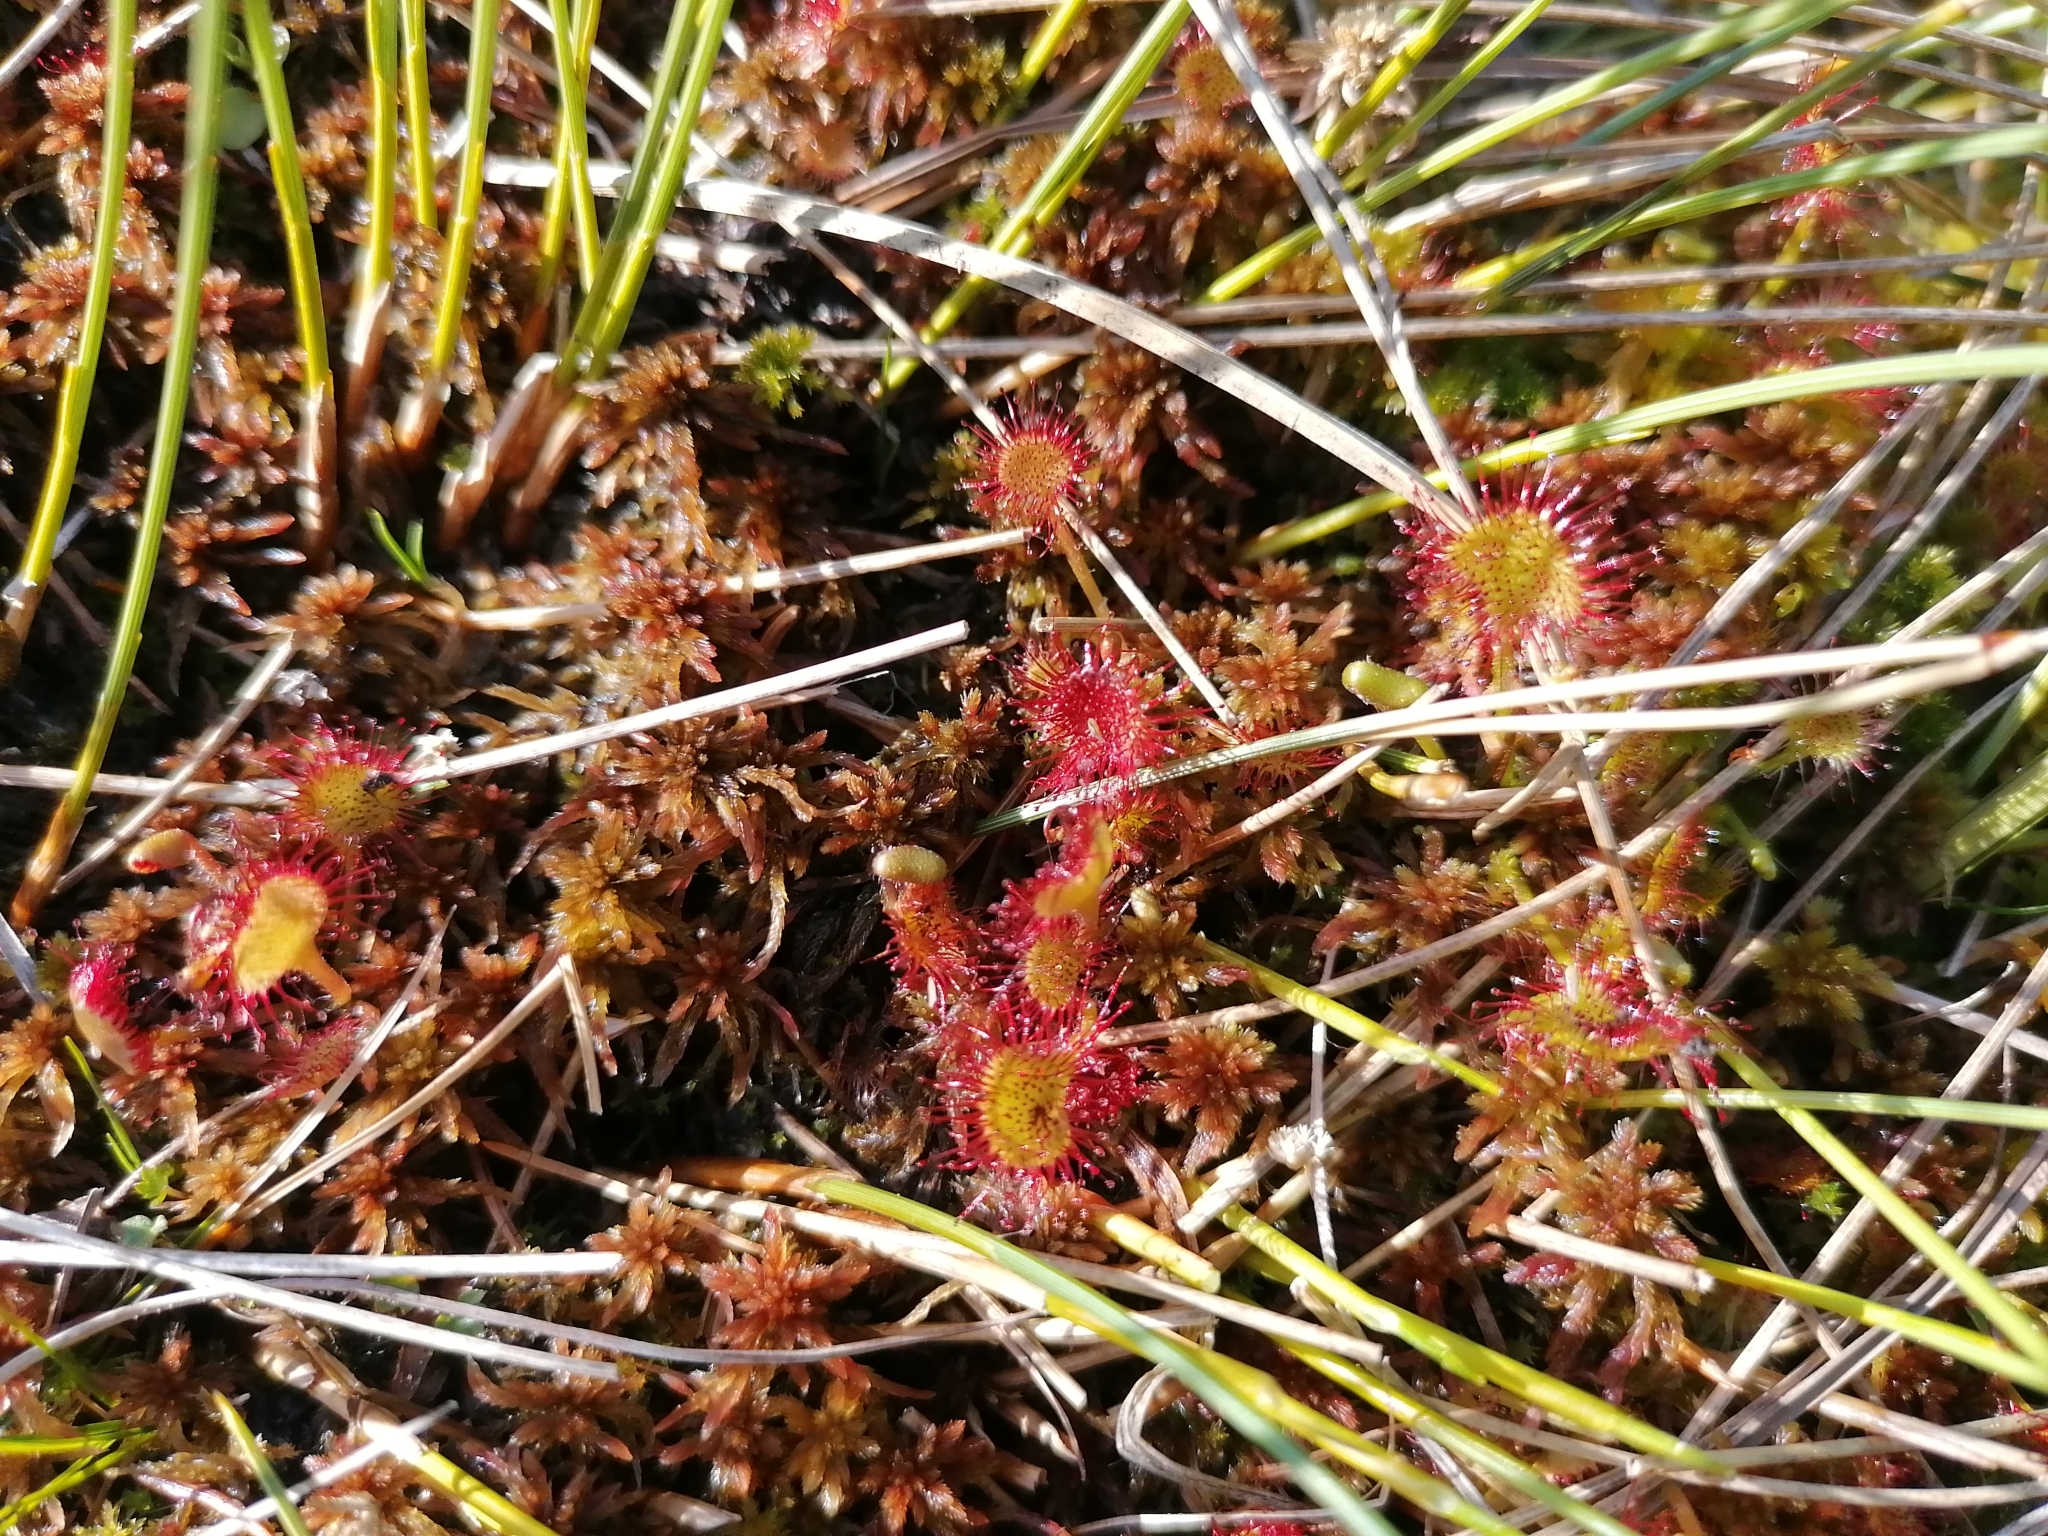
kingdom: Plantae
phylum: Tracheophyta
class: Magnoliopsida
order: Caryophyllales
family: Droseraceae
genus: Drosera
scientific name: Drosera rotundifolia
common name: Round-leaved sundew
